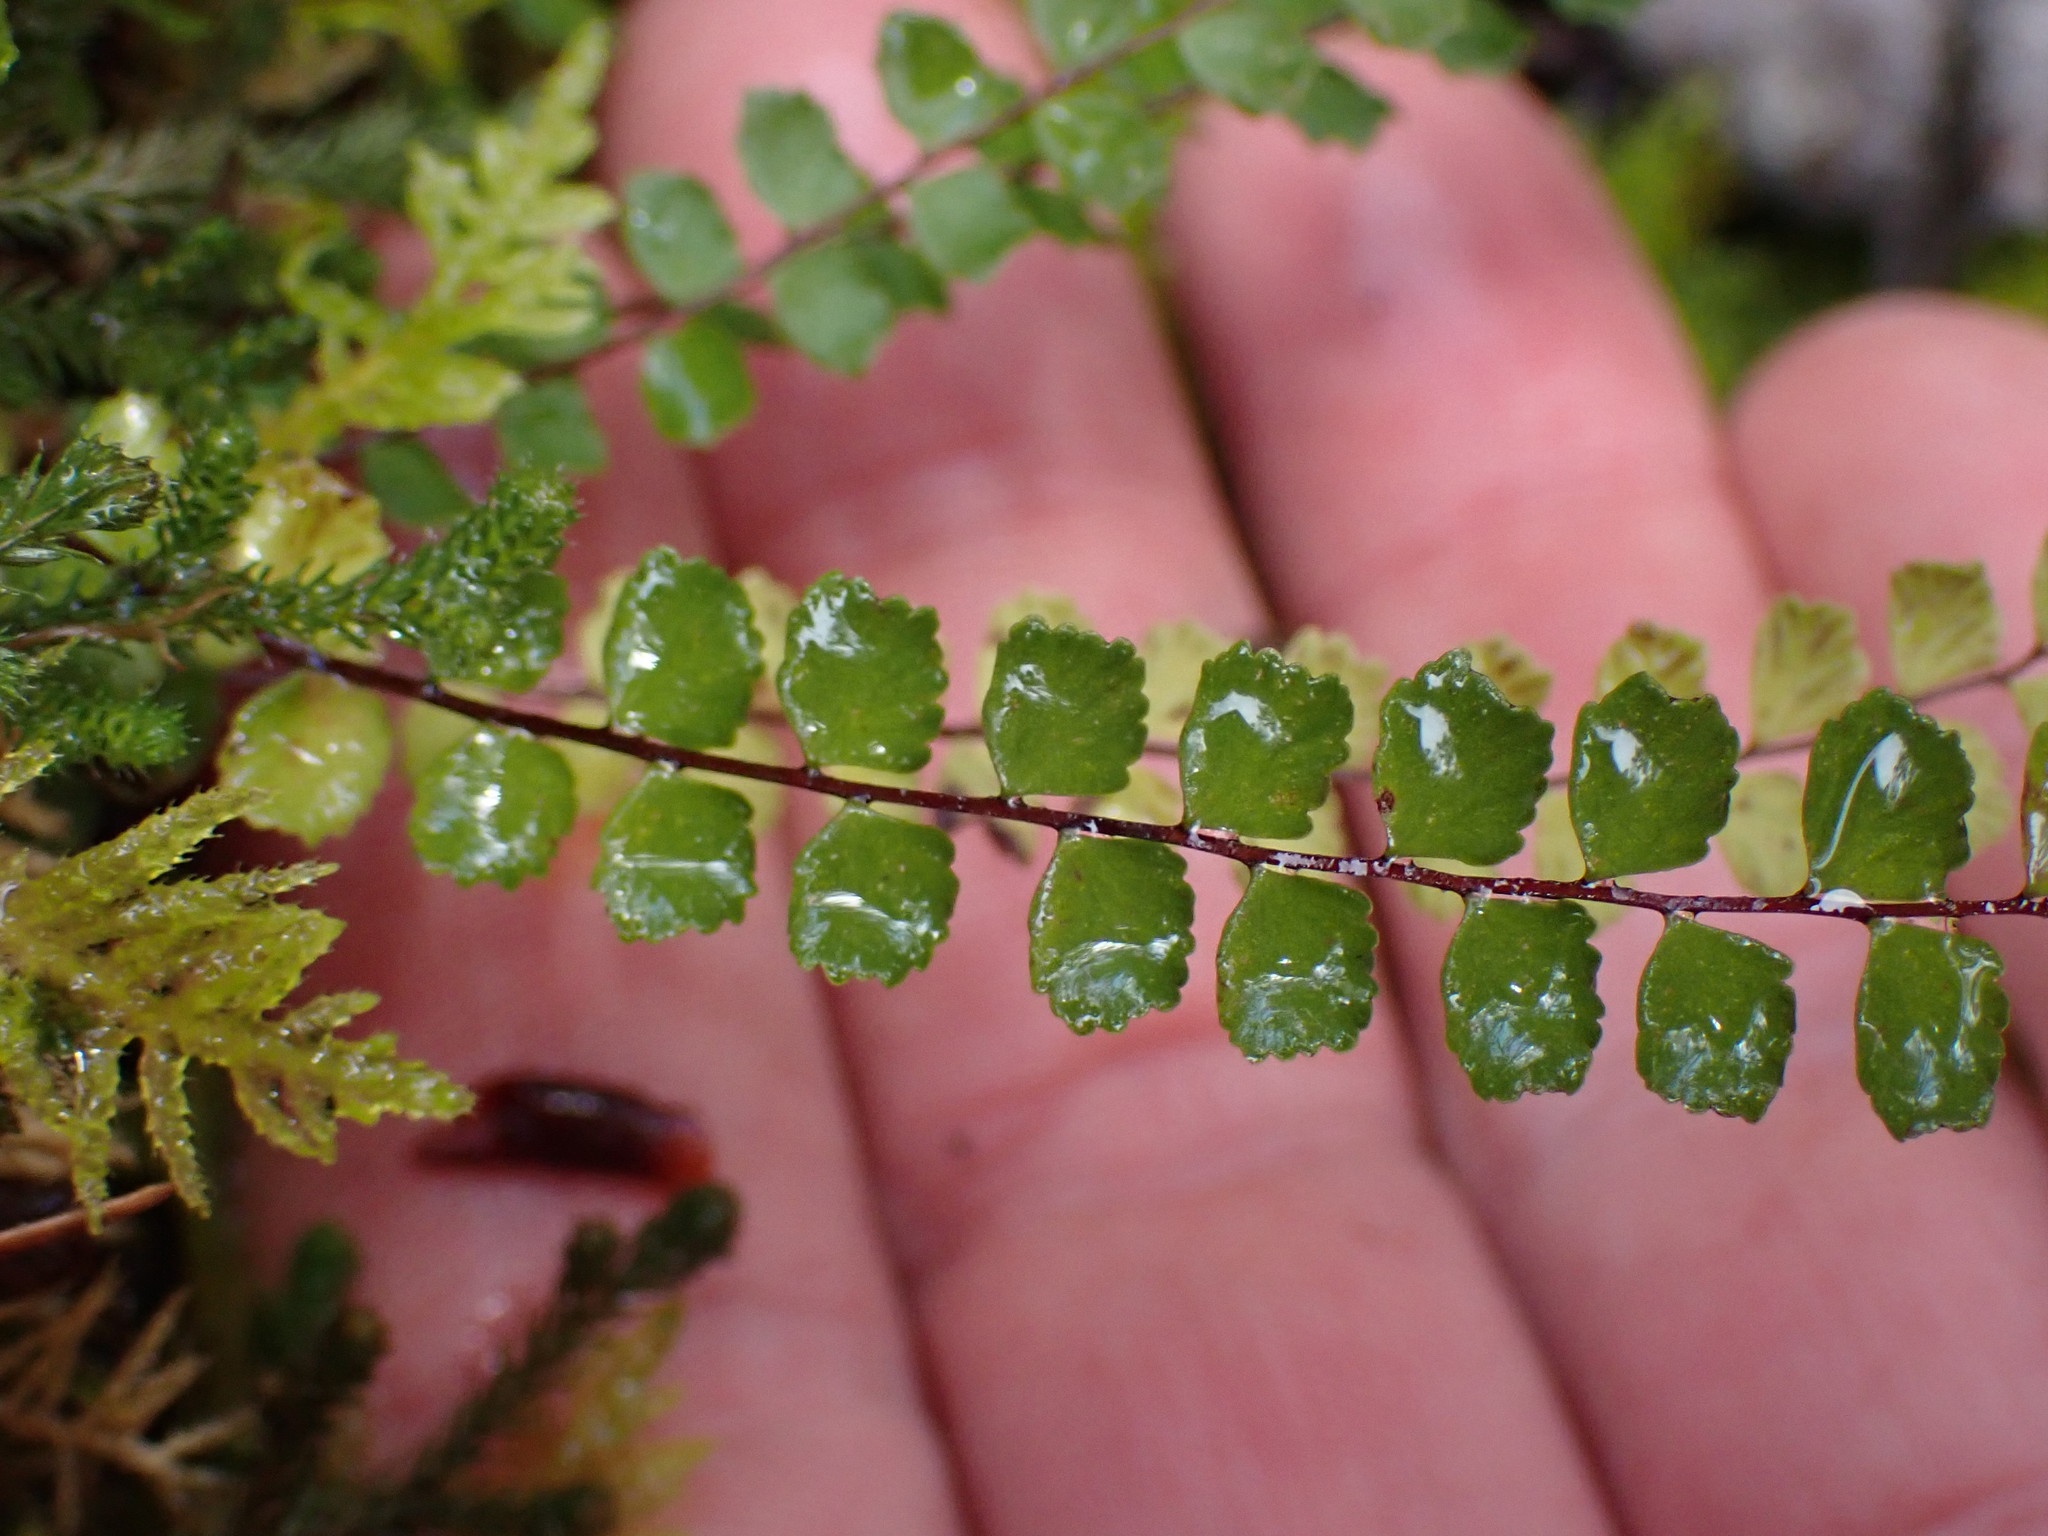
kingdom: Plantae
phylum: Tracheophyta
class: Polypodiopsida
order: Polypodiales
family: Aspleniaceae
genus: Asplenium
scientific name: Asplenium trichomanes
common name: Maidenhair spleenwort
